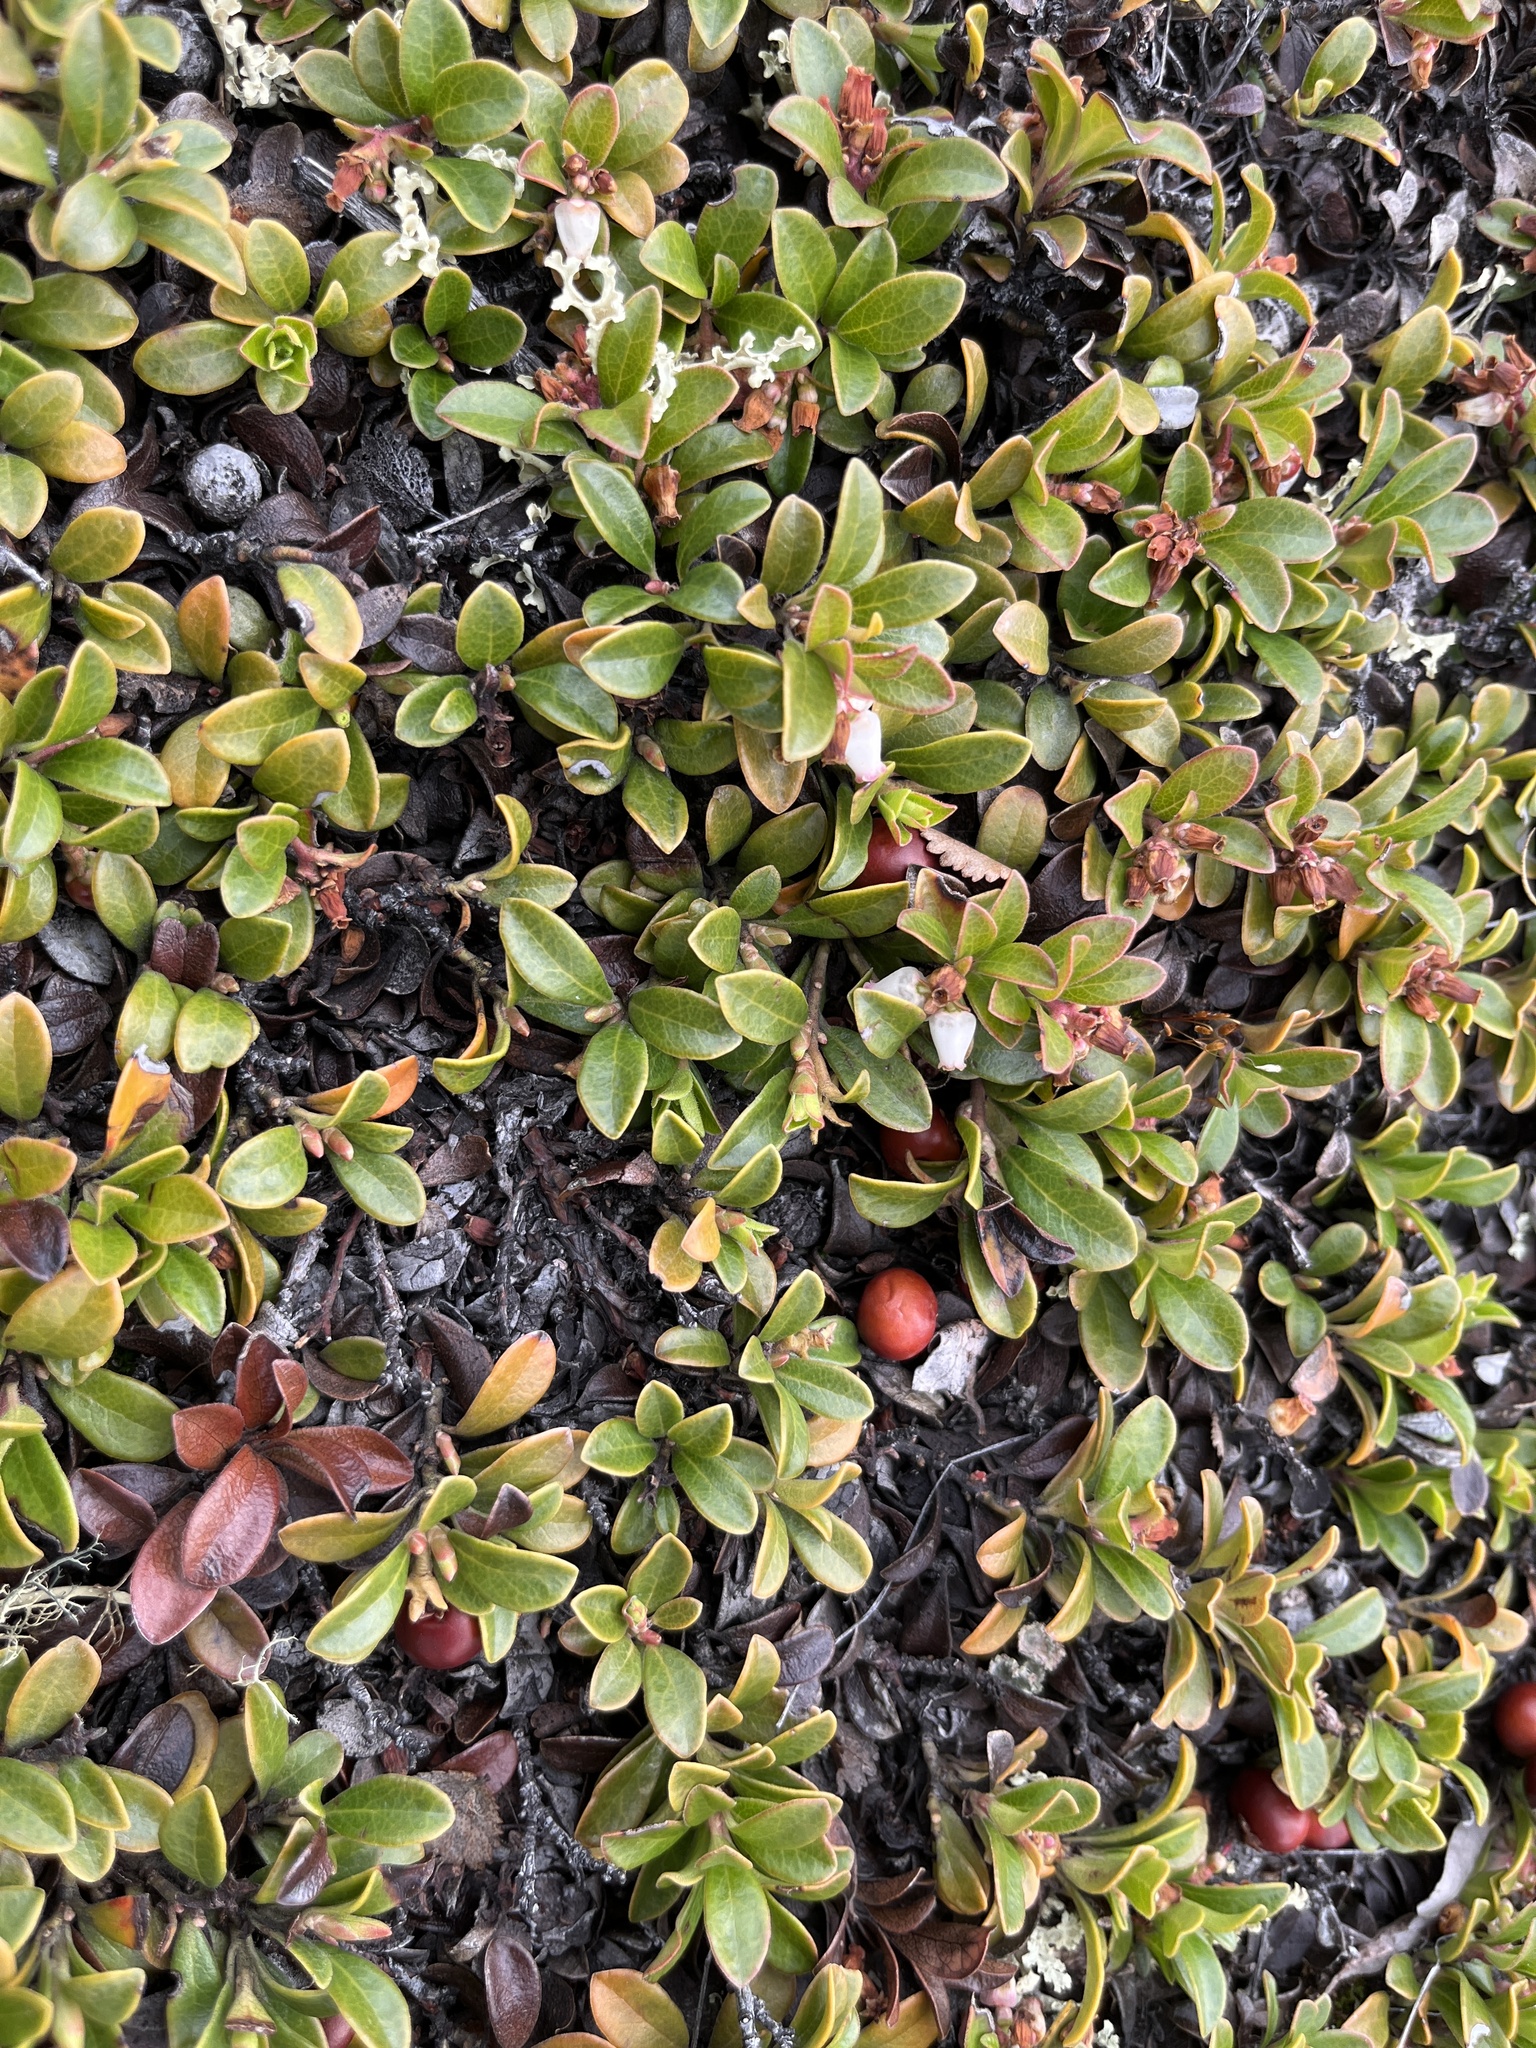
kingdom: Plantae
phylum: Tracheophyta
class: Magnoliopsida
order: Ericales
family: Ericaceae
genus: Arctostaphylos
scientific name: Arctostaphylos uva-ursi
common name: Bearberry
